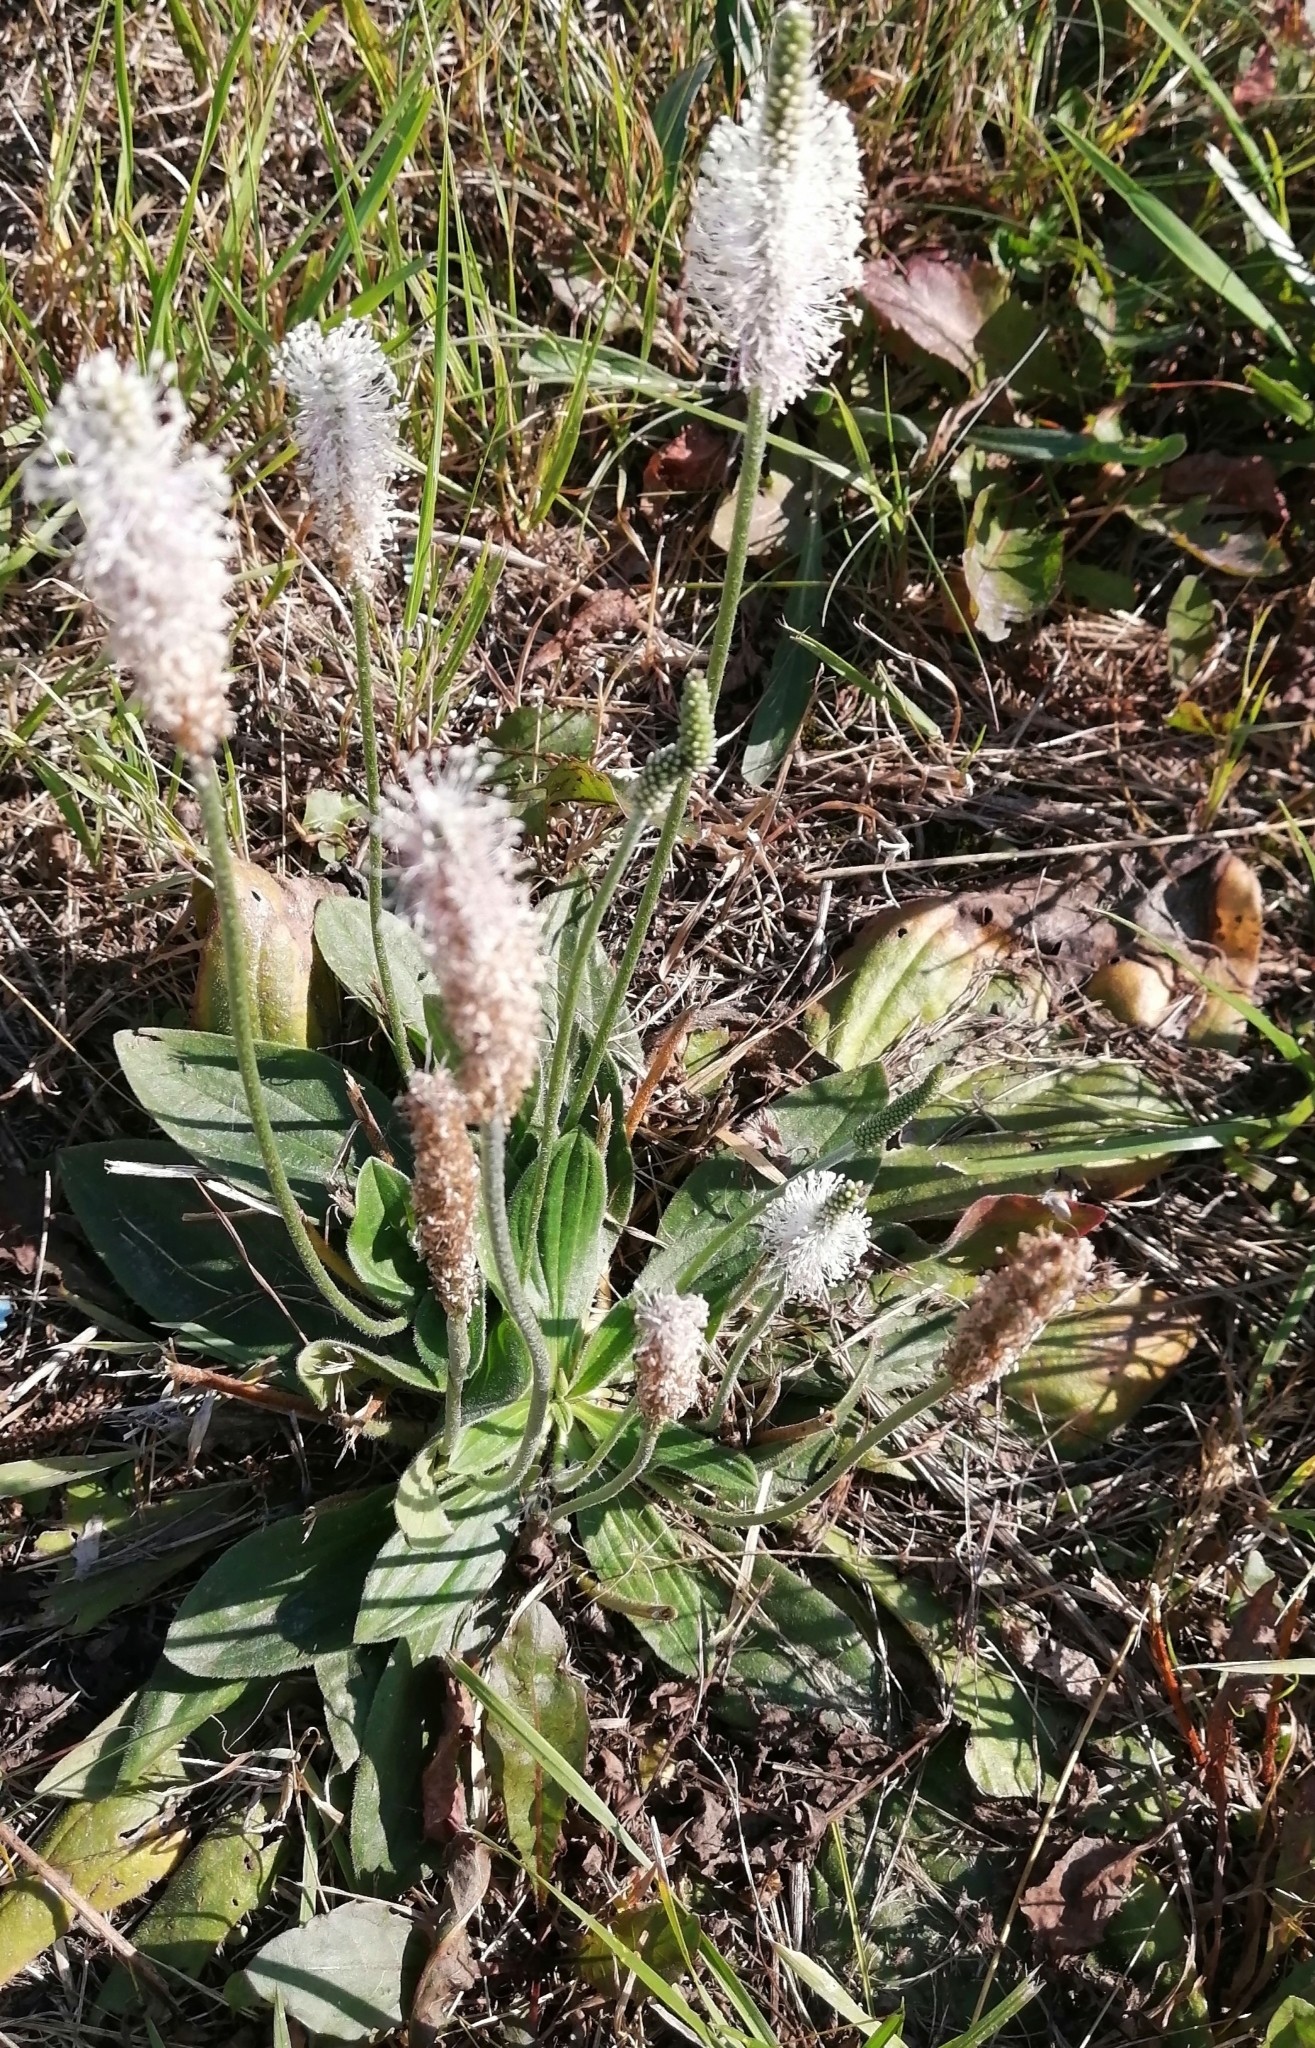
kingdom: Plantae
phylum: Tracheophyta
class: Magnoliopsida
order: Lamiales
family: Plantaginaceae
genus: Plantago
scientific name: Plantago media
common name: Hoary plantain
